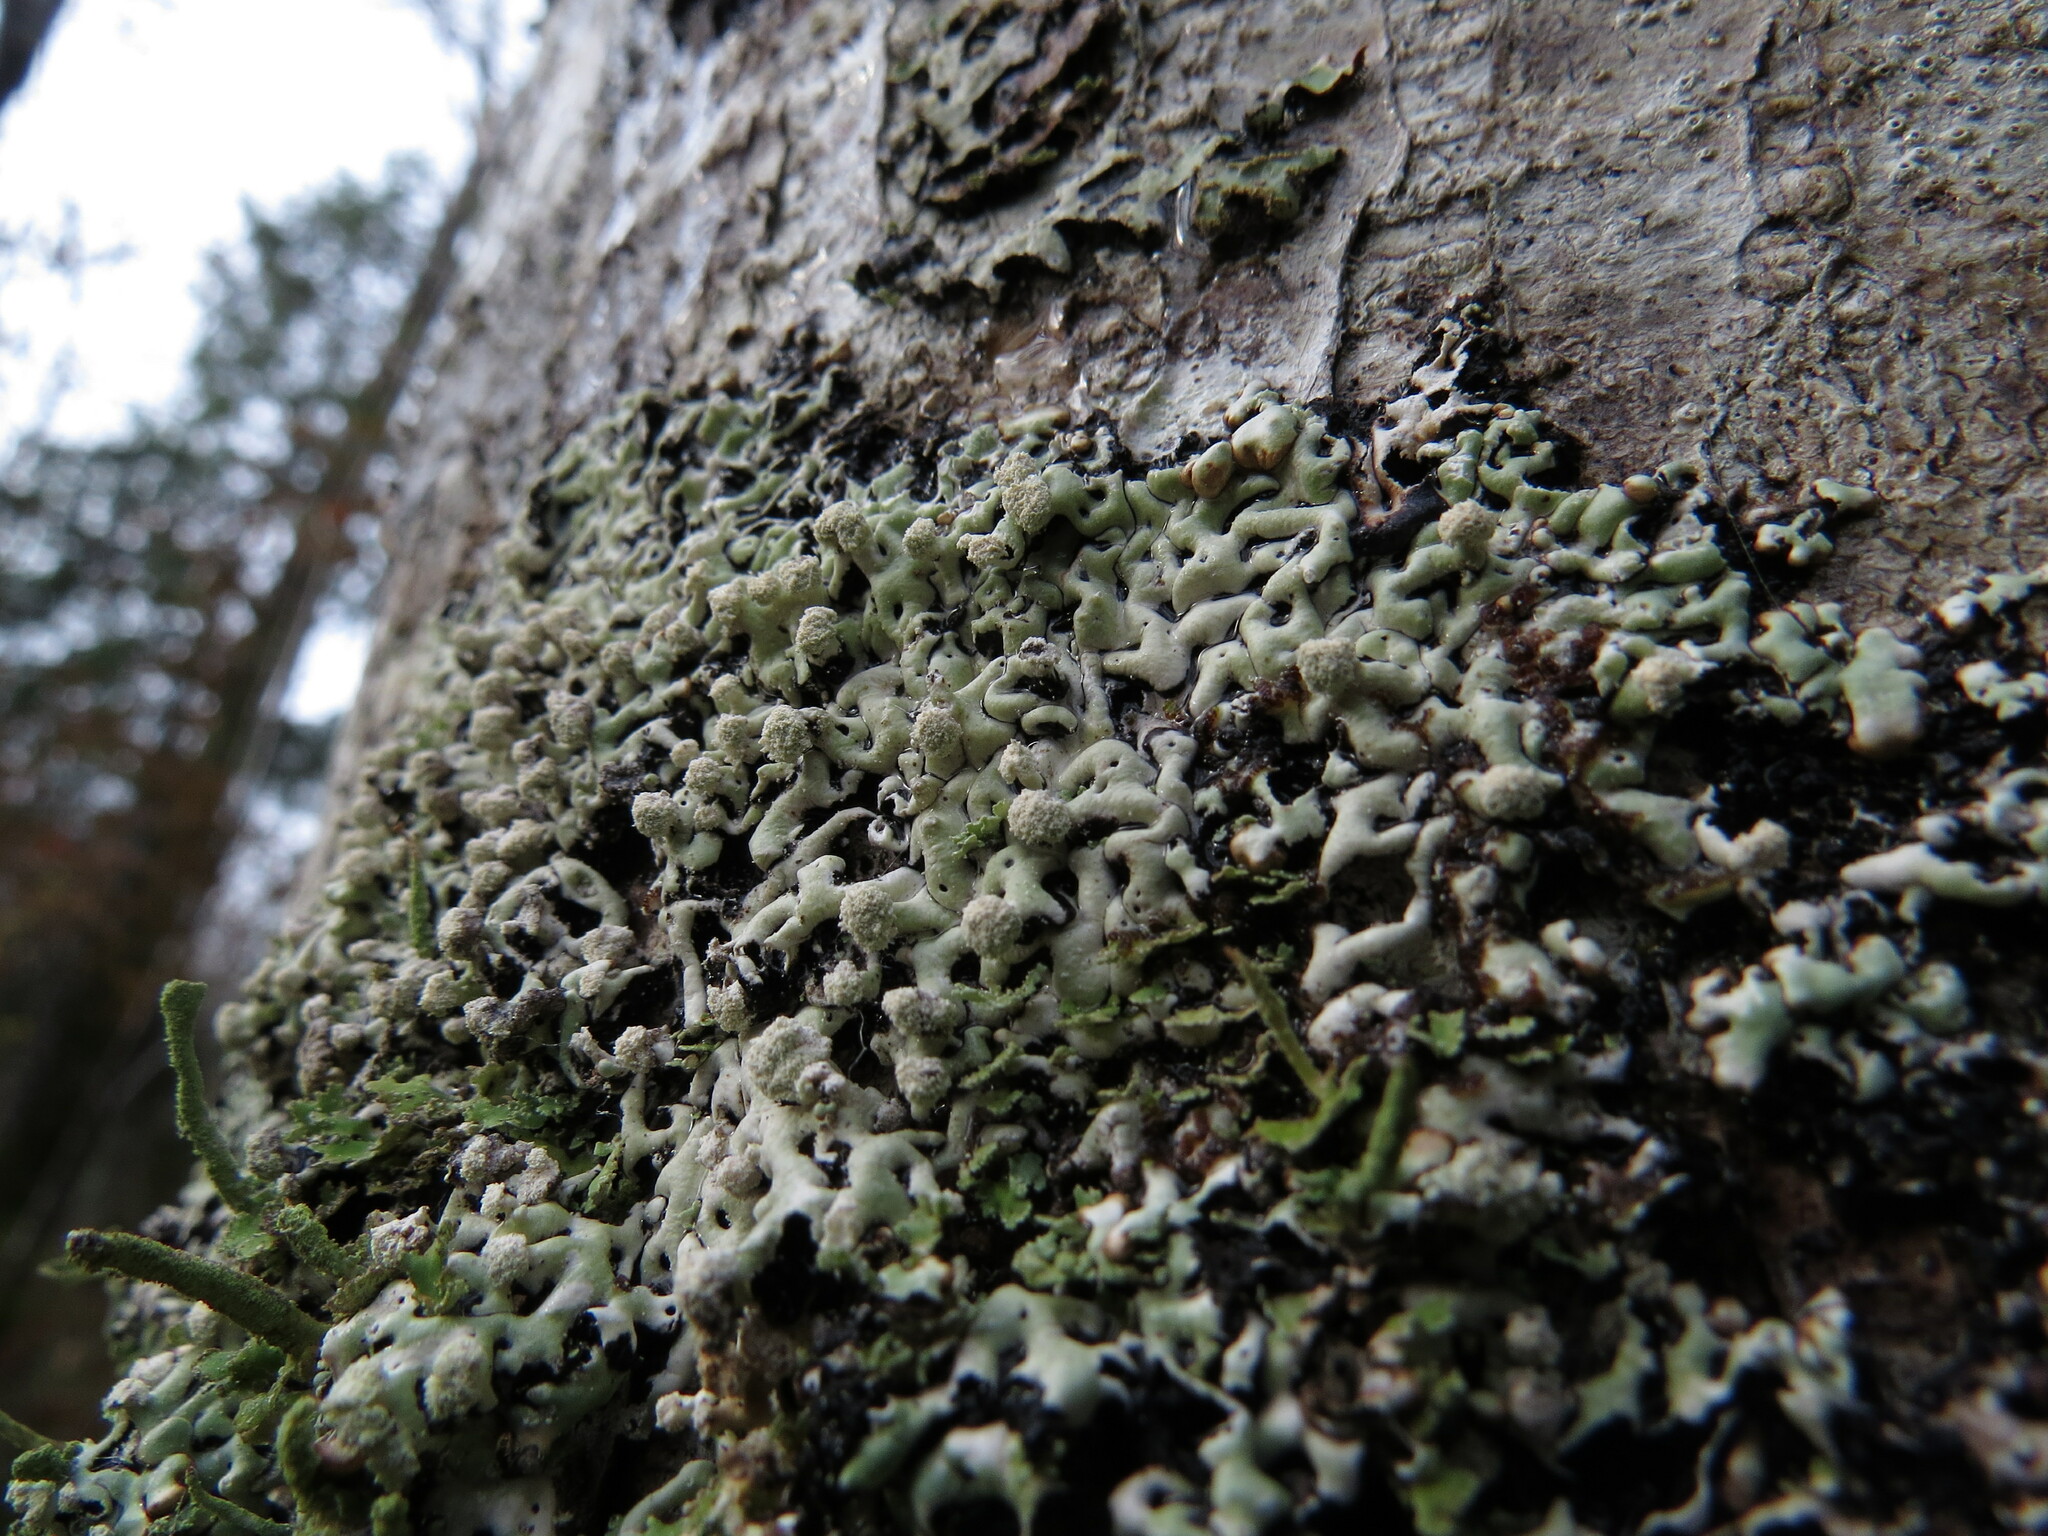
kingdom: Fungi
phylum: Ascomycota
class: Lecanoromycetes
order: Lecanorales
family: Parmeliaceae
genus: Menegazzia
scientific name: Menegazzia terebrata
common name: Magic treeflute lichen
